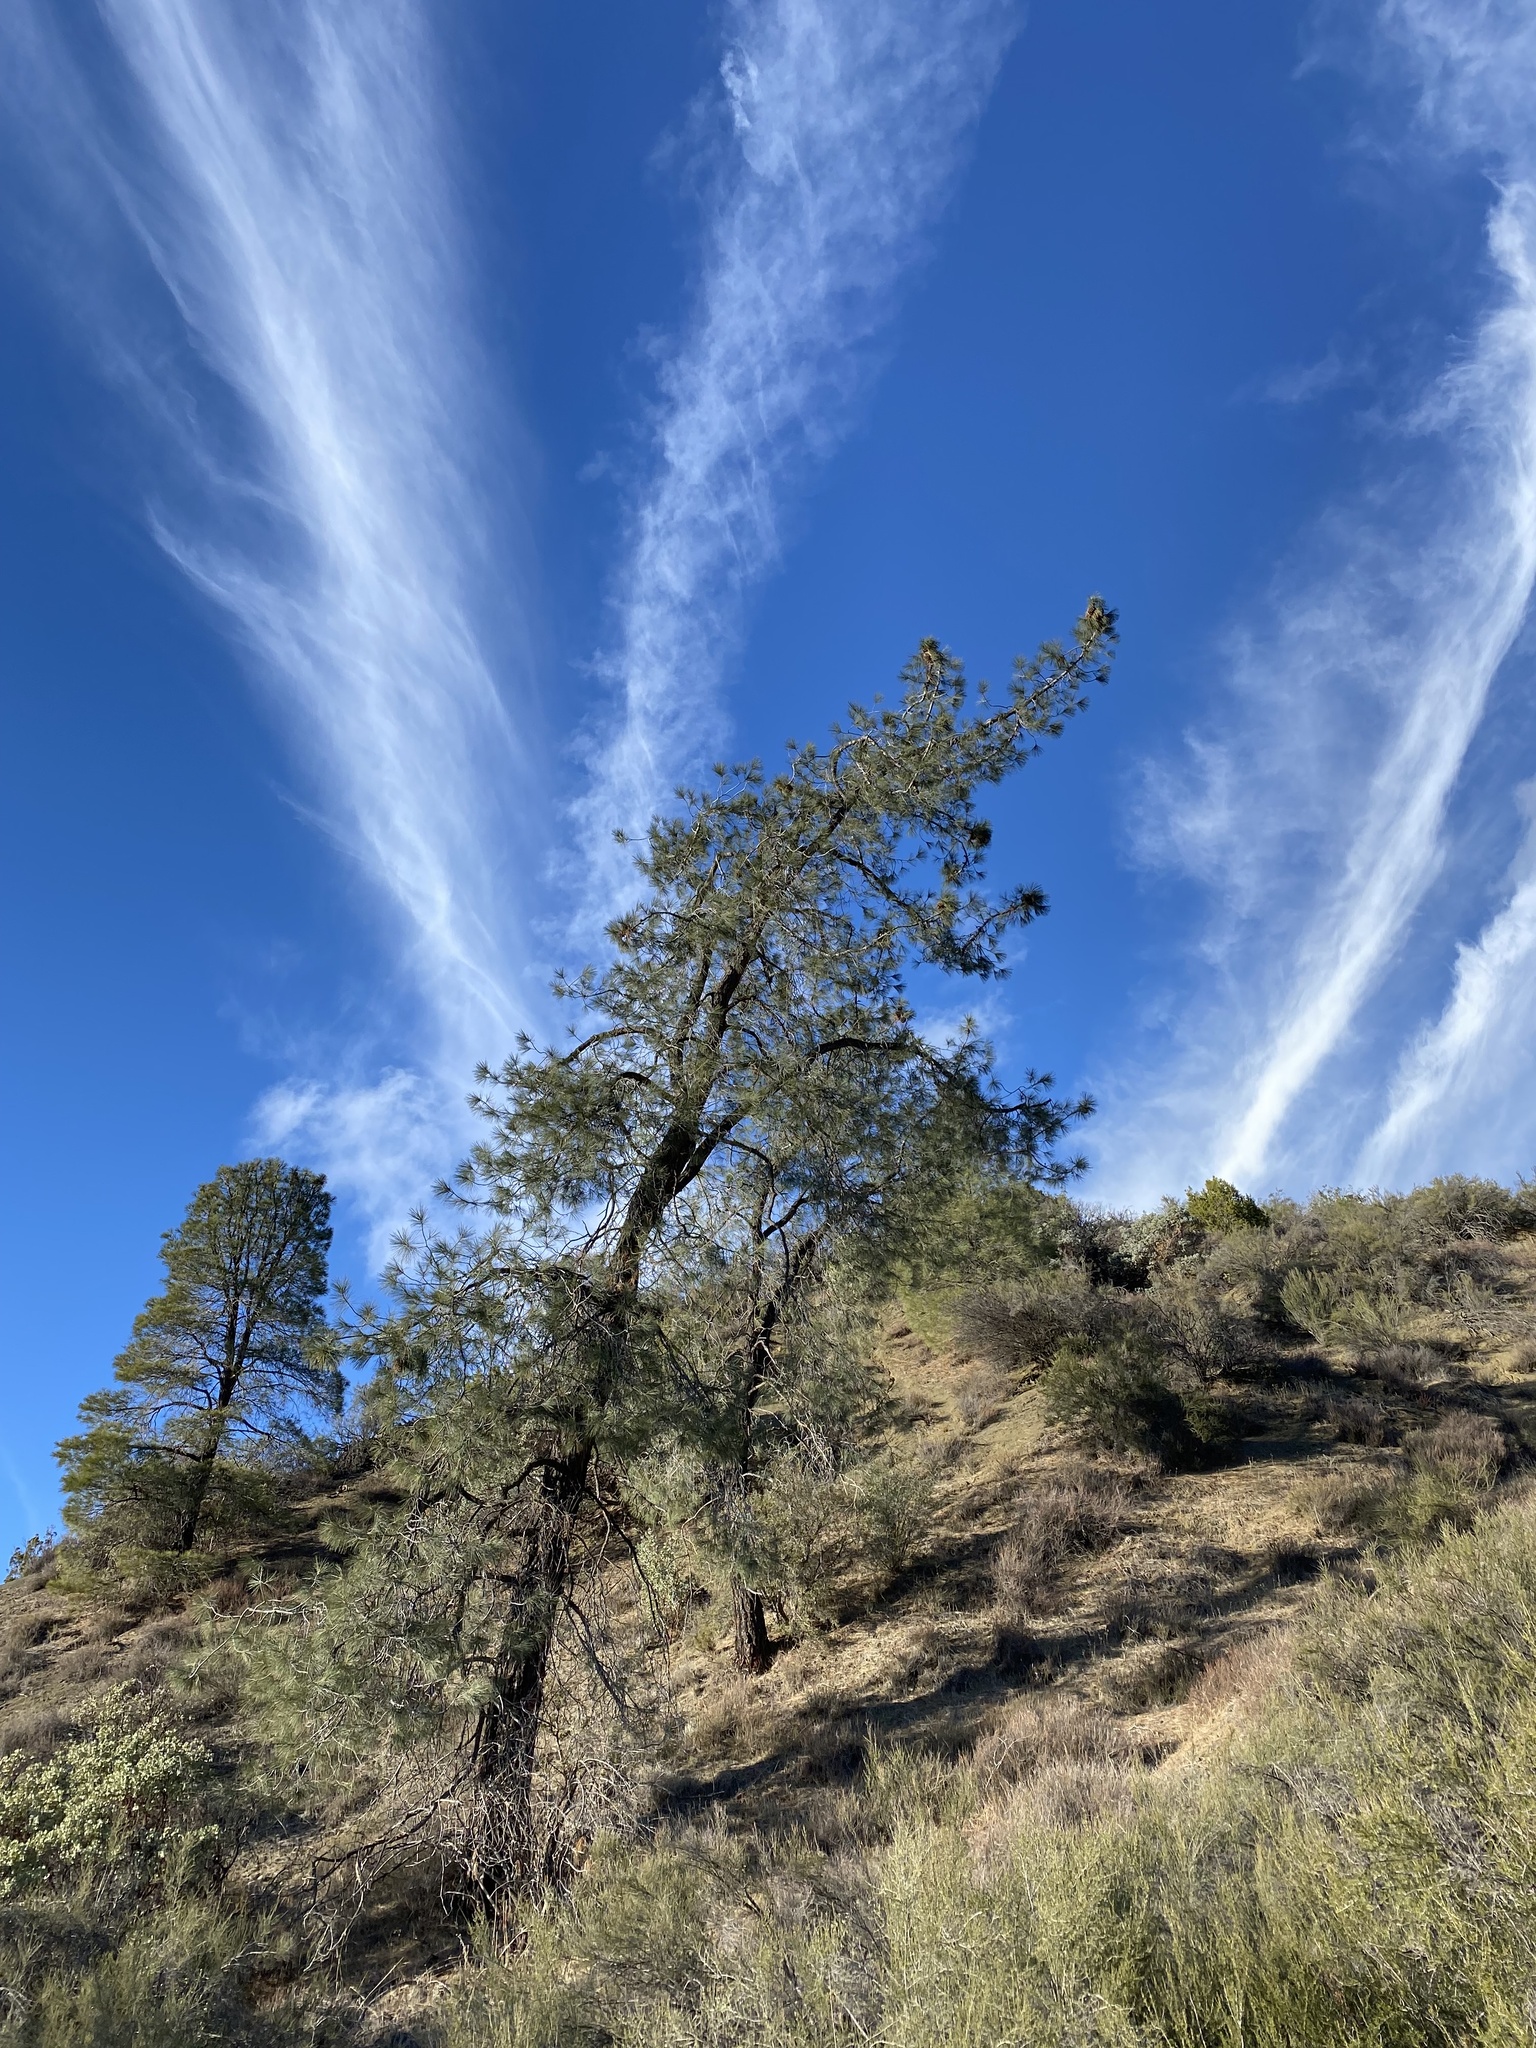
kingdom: Plantae
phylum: Tracheophyta
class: Pinopsida
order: Pinales
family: Pinaceae
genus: Pinus
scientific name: Pinus sabiniana
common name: Bull pine
